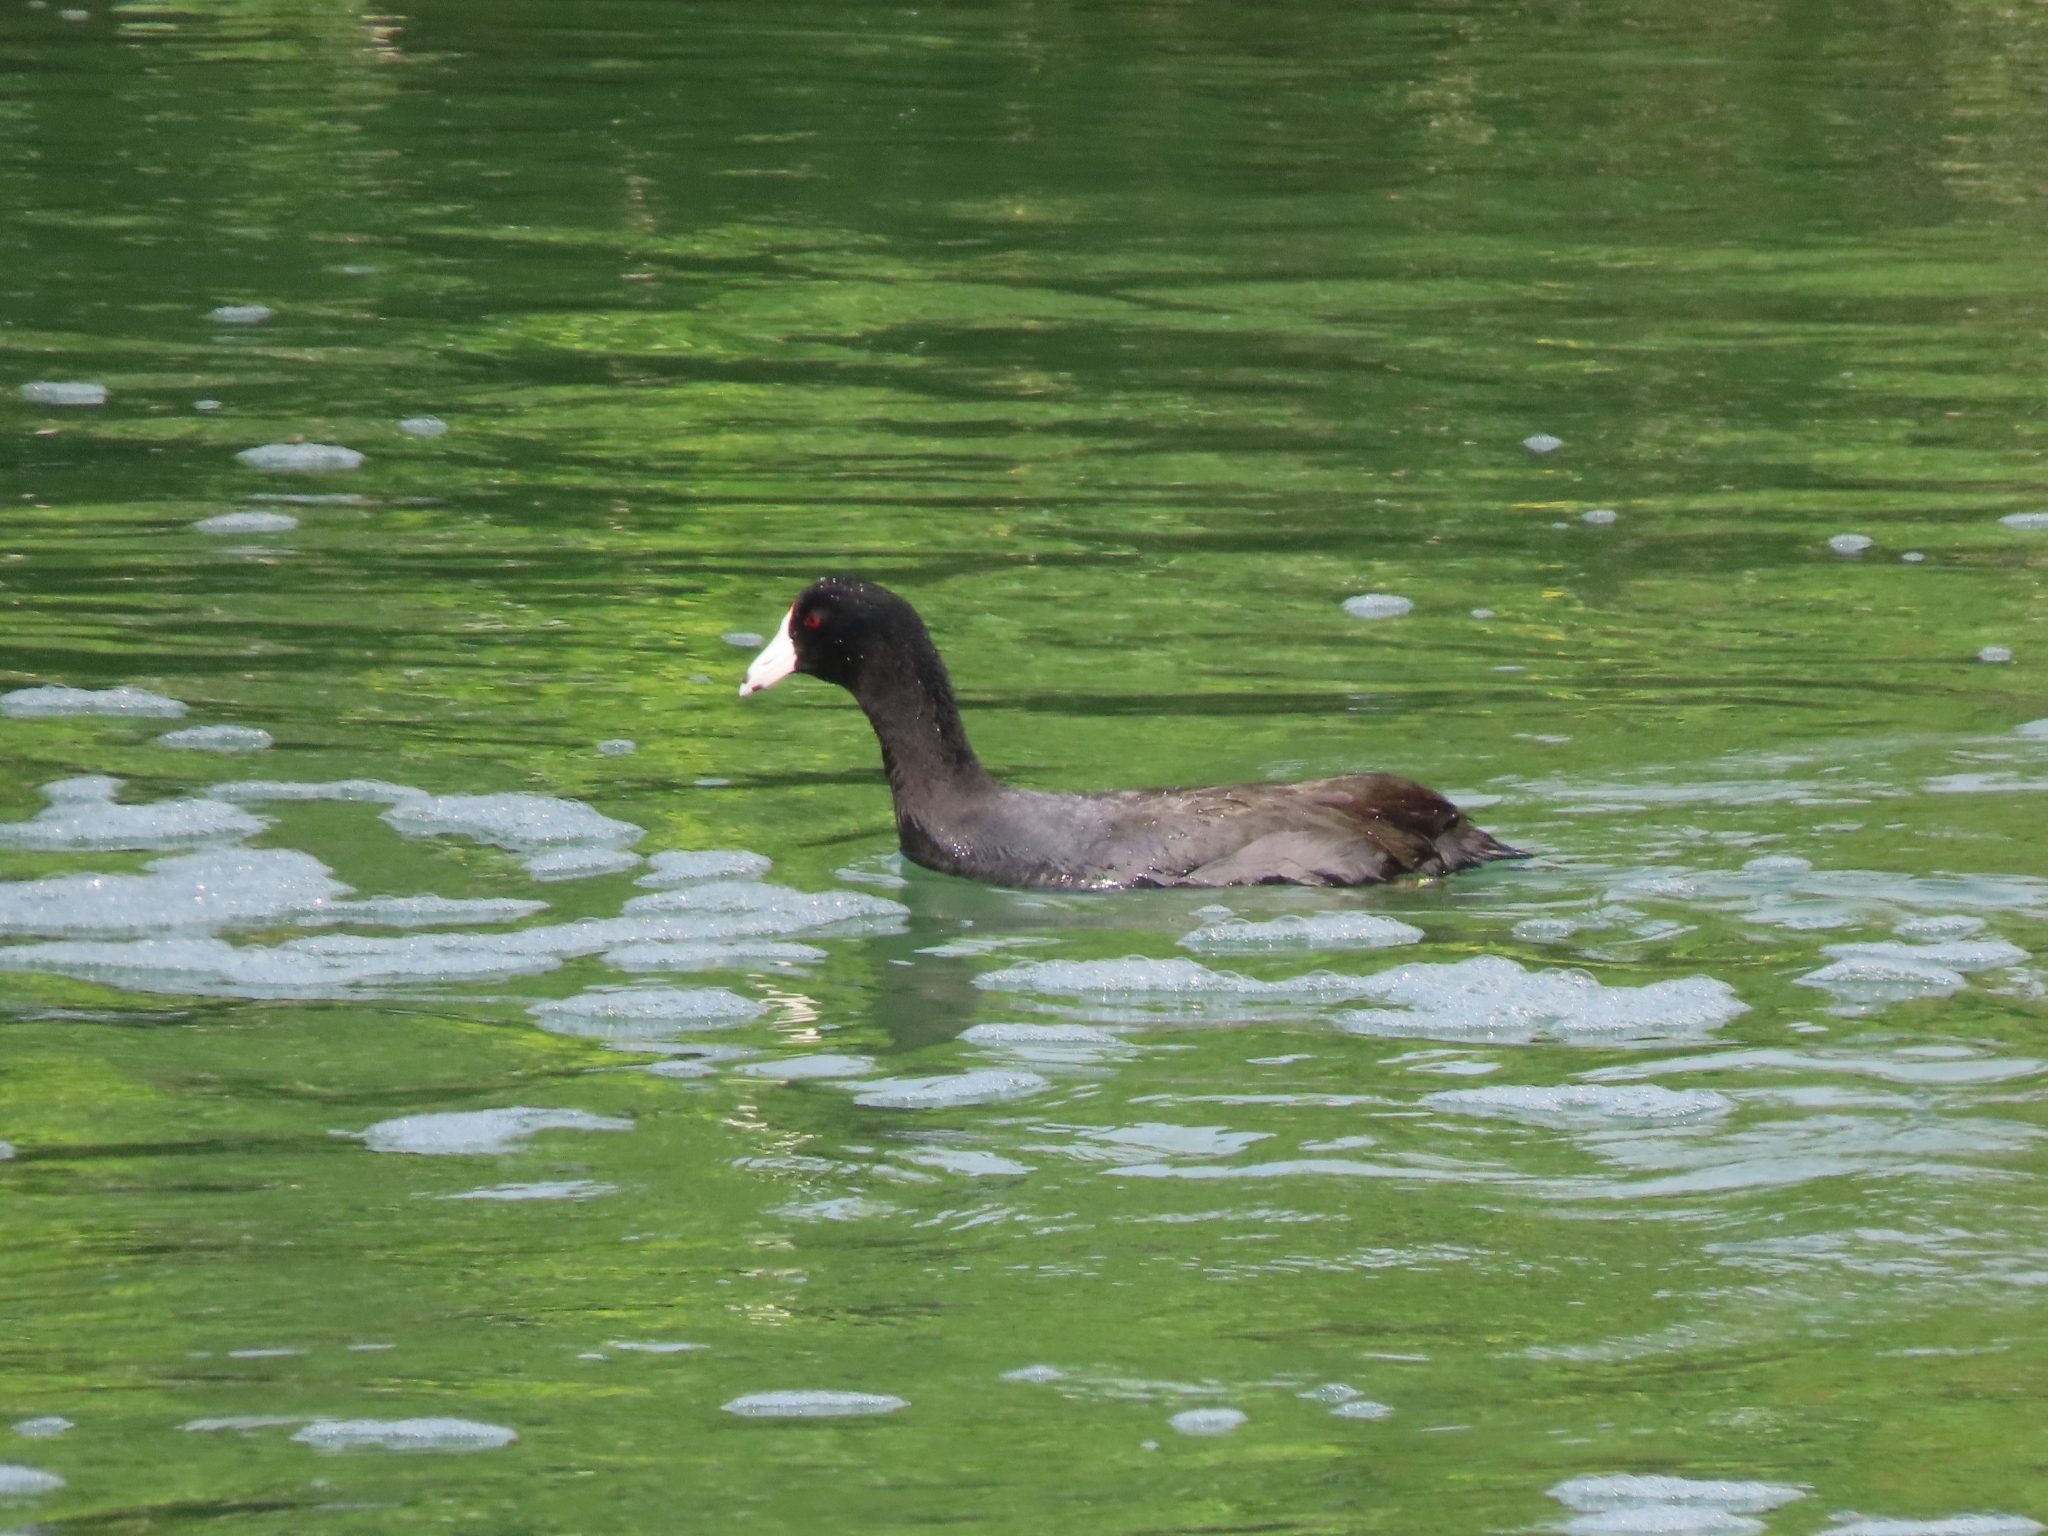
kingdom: Animalia
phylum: Chordata
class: Aves
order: Gruiformes
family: Rallidae
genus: Fulica
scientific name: Fulica americana
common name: American coot
